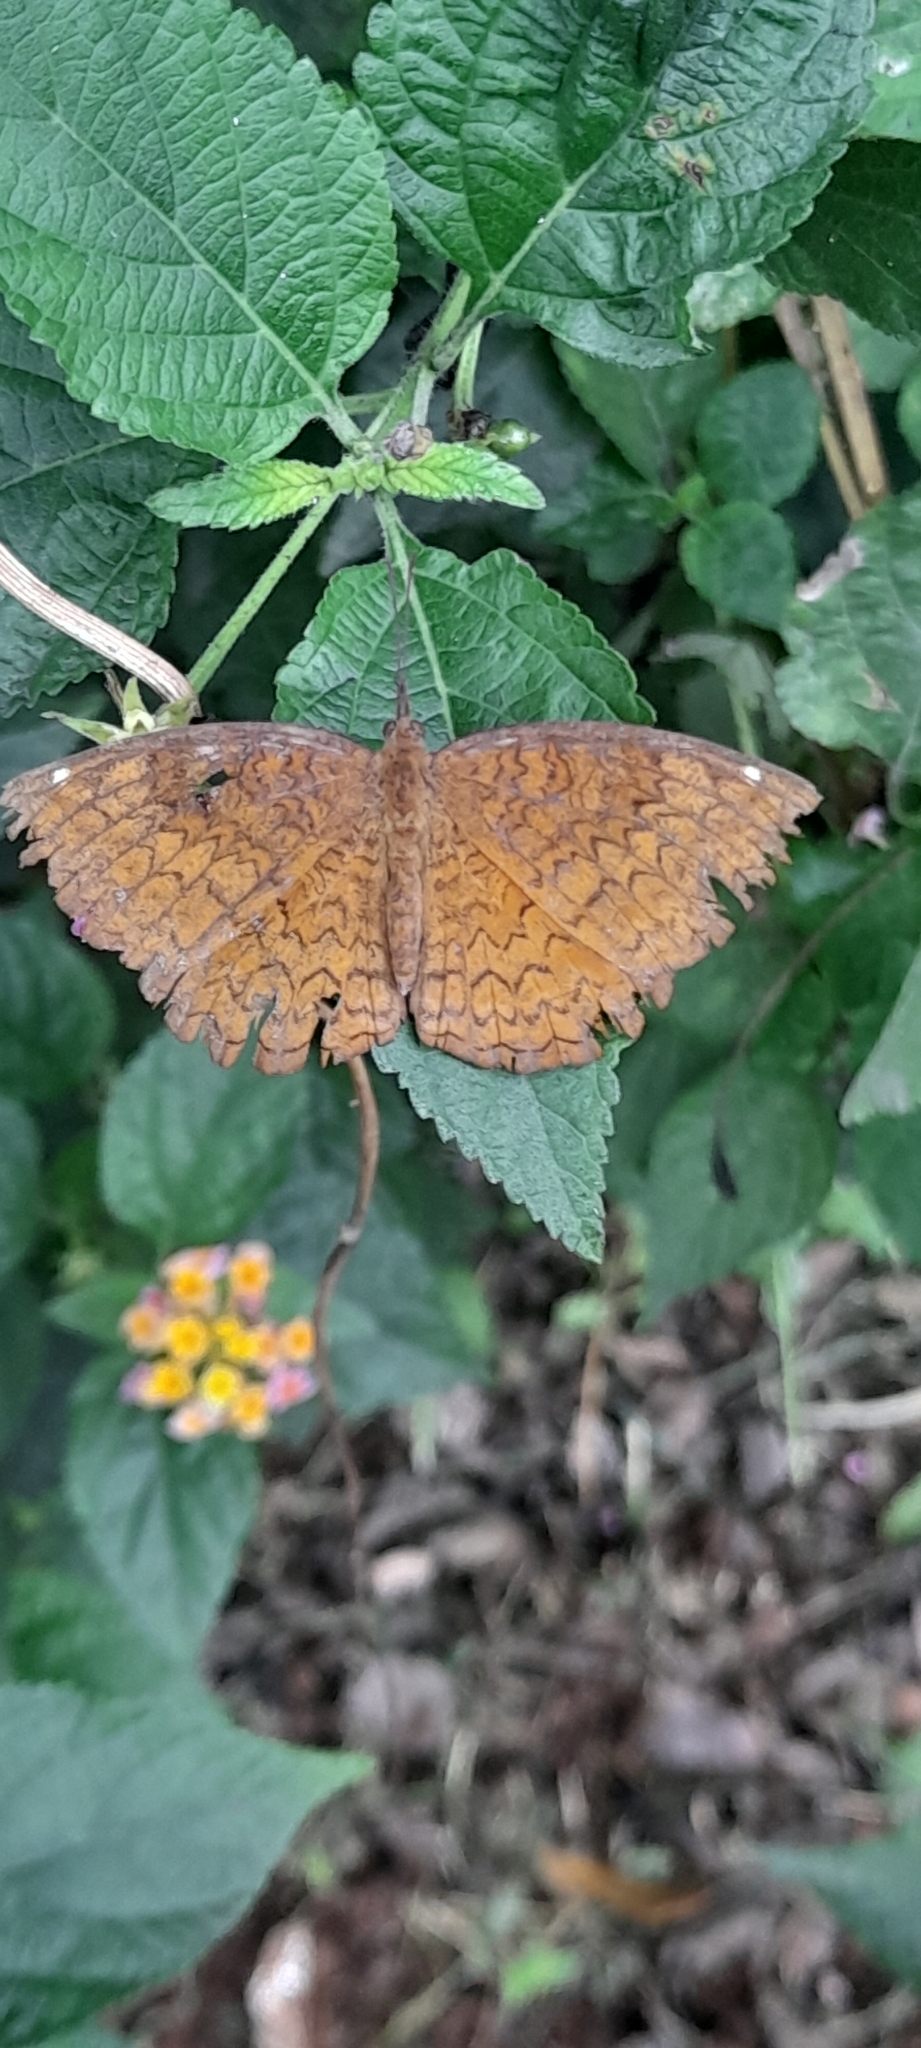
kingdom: Animalia
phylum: Arthropoda
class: Insecta
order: Lepidoptera
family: Nymphalidae
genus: Ariadne
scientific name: Ariadne merione
